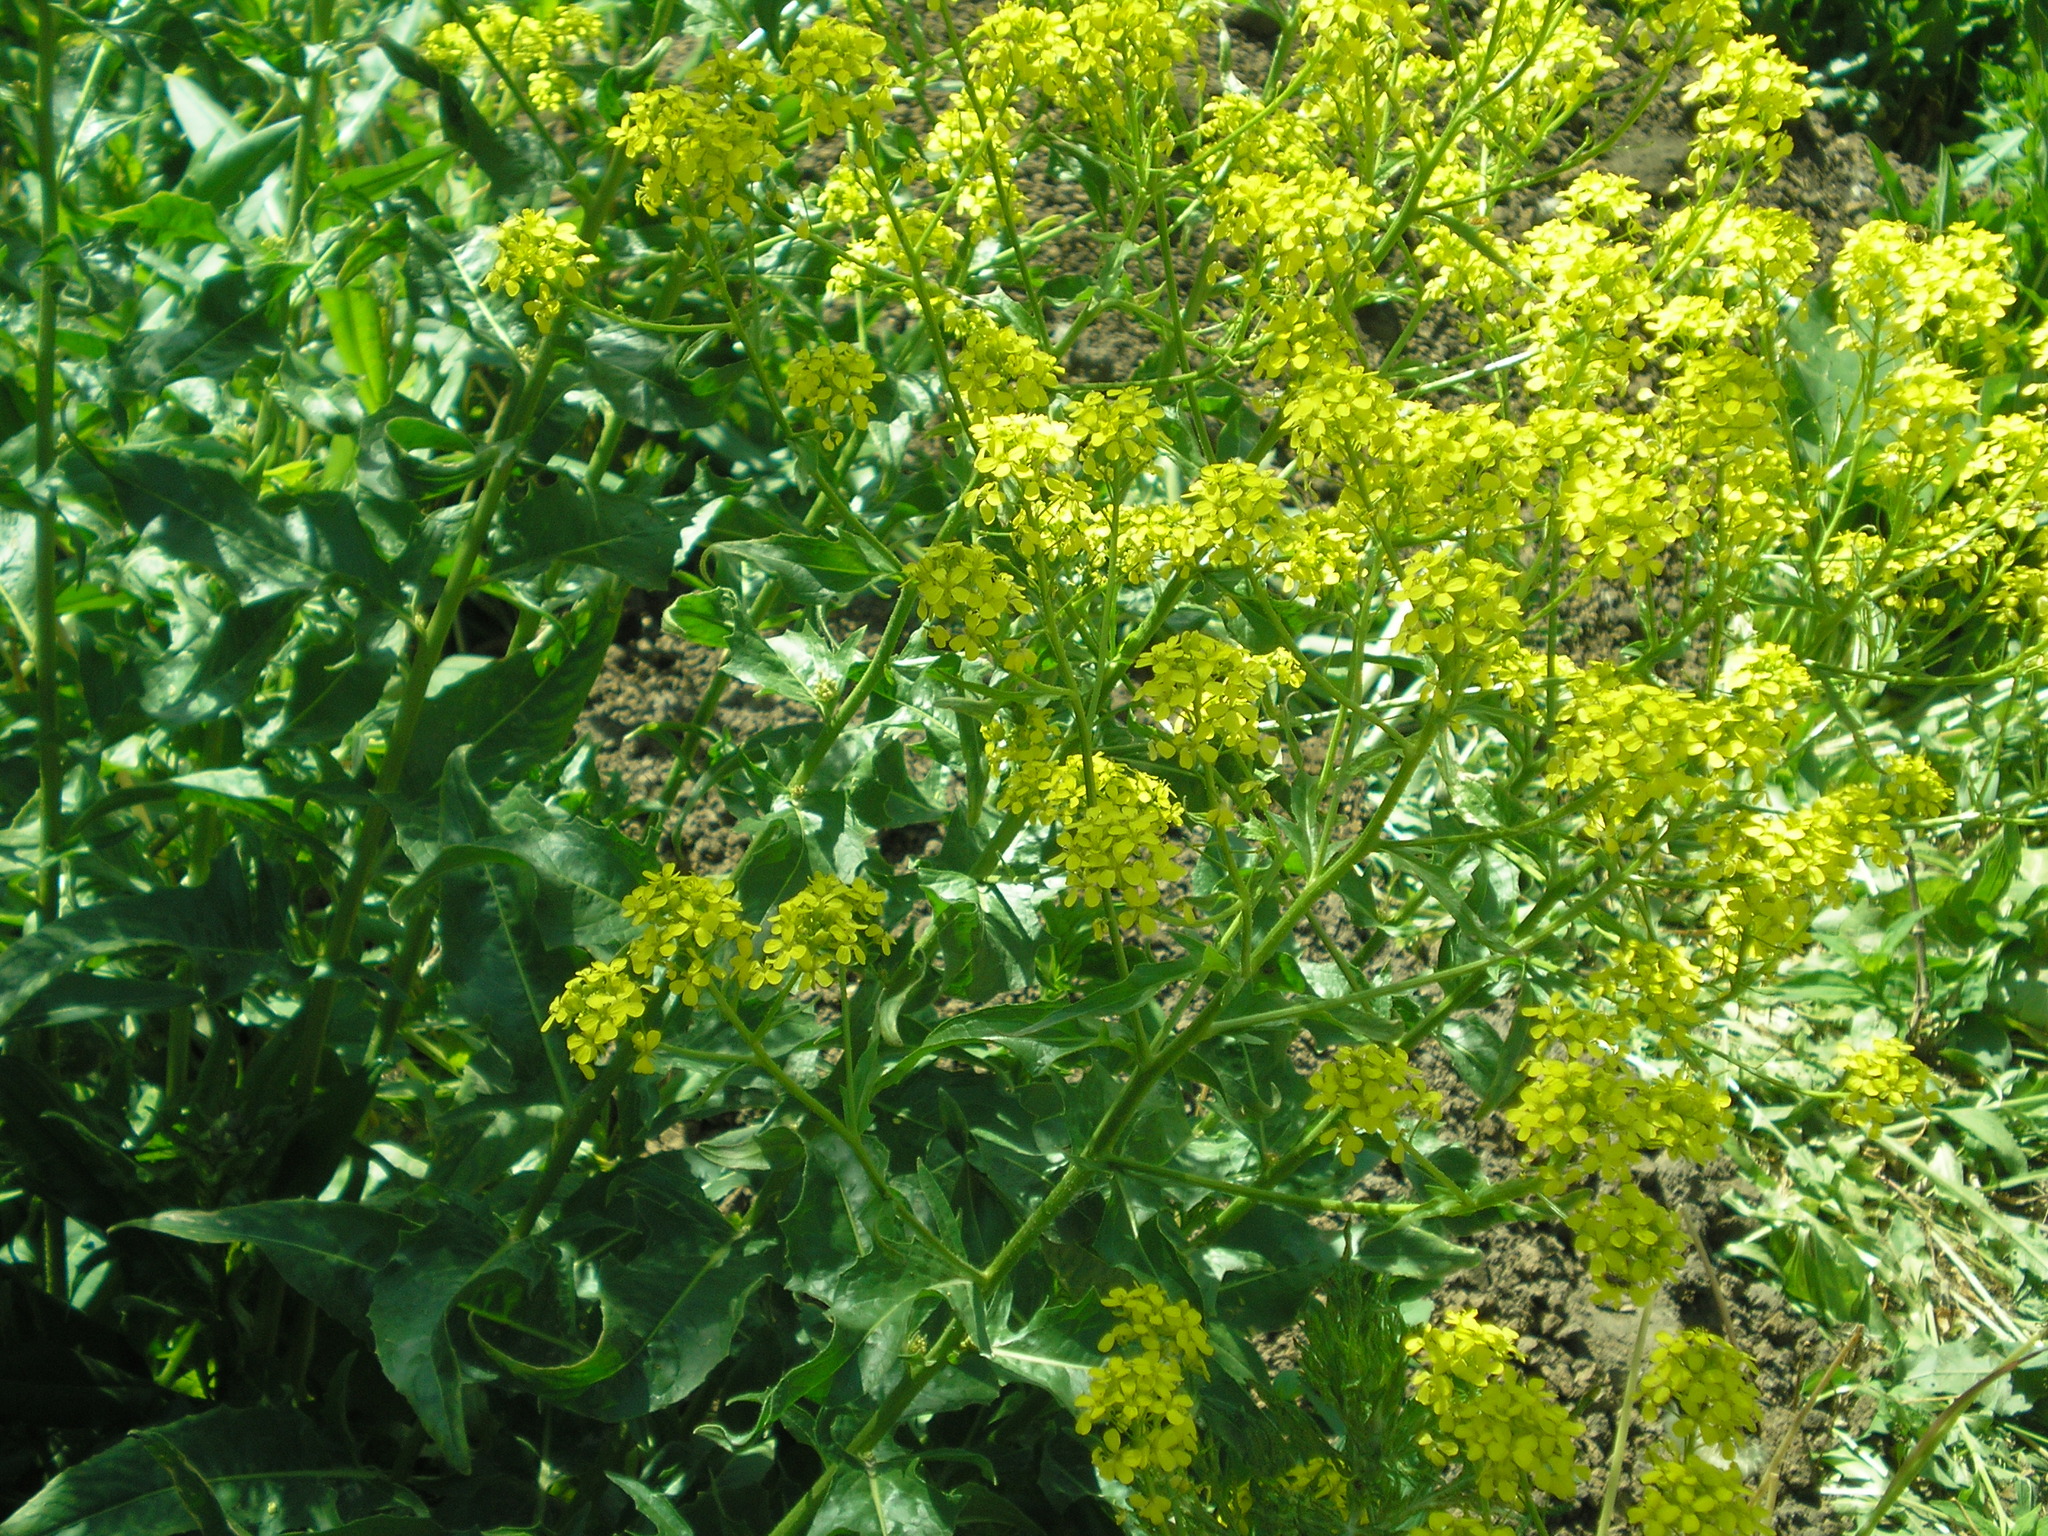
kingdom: Plantae
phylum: Tracheophyta
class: Magnoliopsida
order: Brassicales
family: Brassicaceae
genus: Bunias
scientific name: Bunias orientalis
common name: Warty-cabbage
